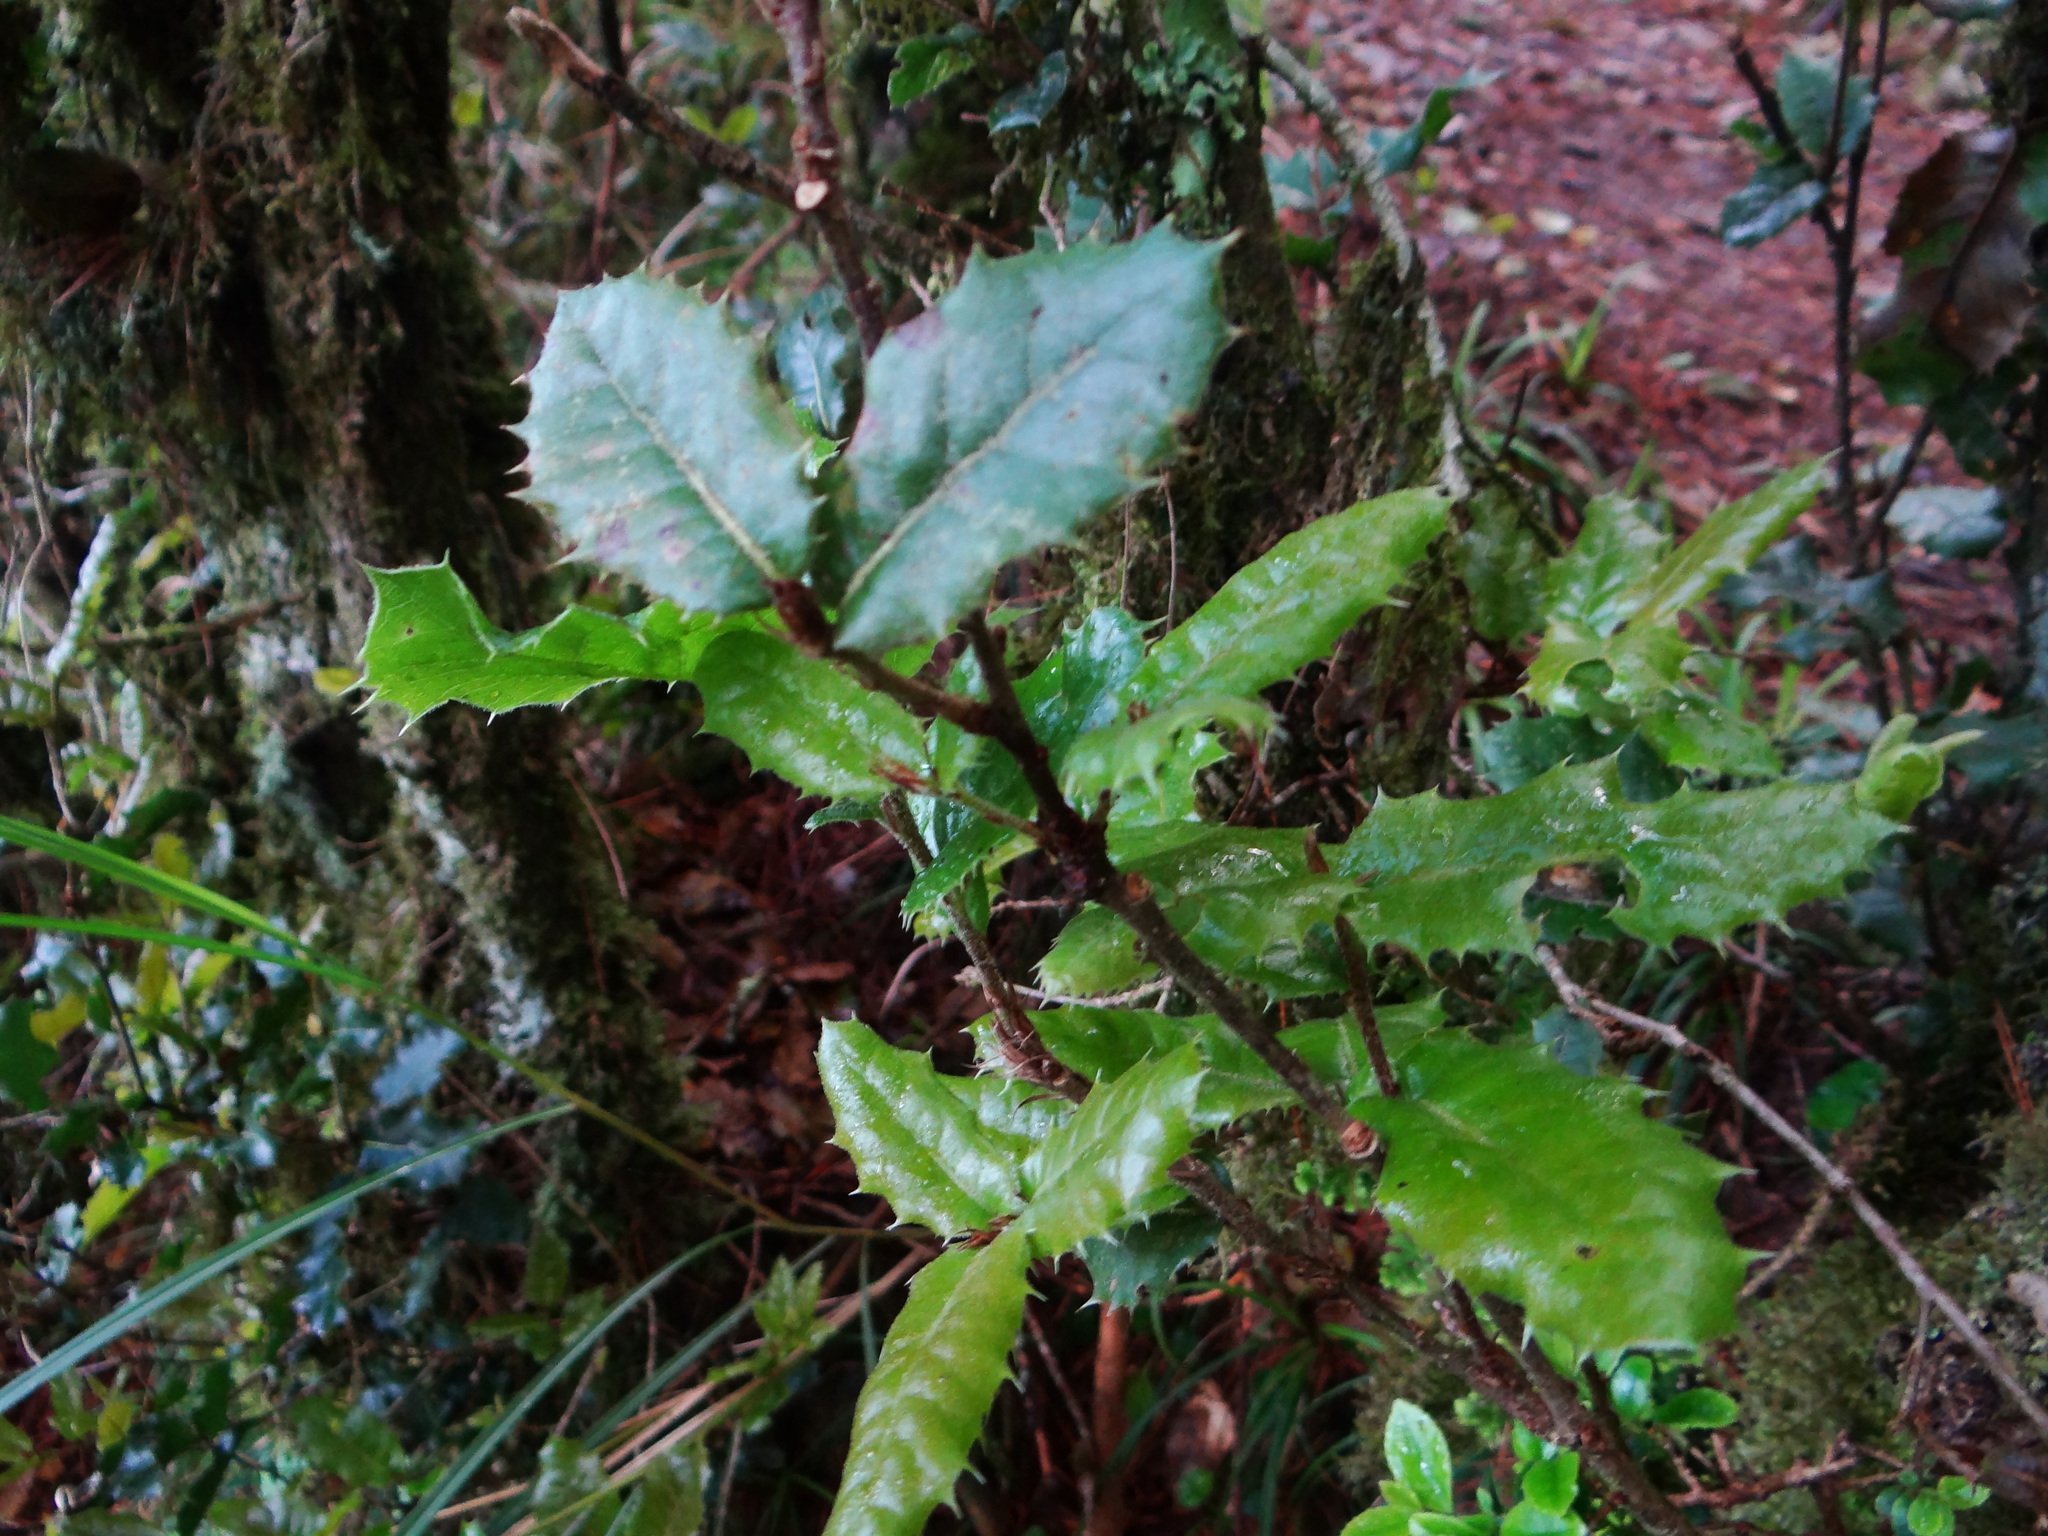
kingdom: Plantae
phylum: Tracheophyta
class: Magnoliopsida
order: Fagales
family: Fagaceae
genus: Quercus
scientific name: Quercus spinosa
